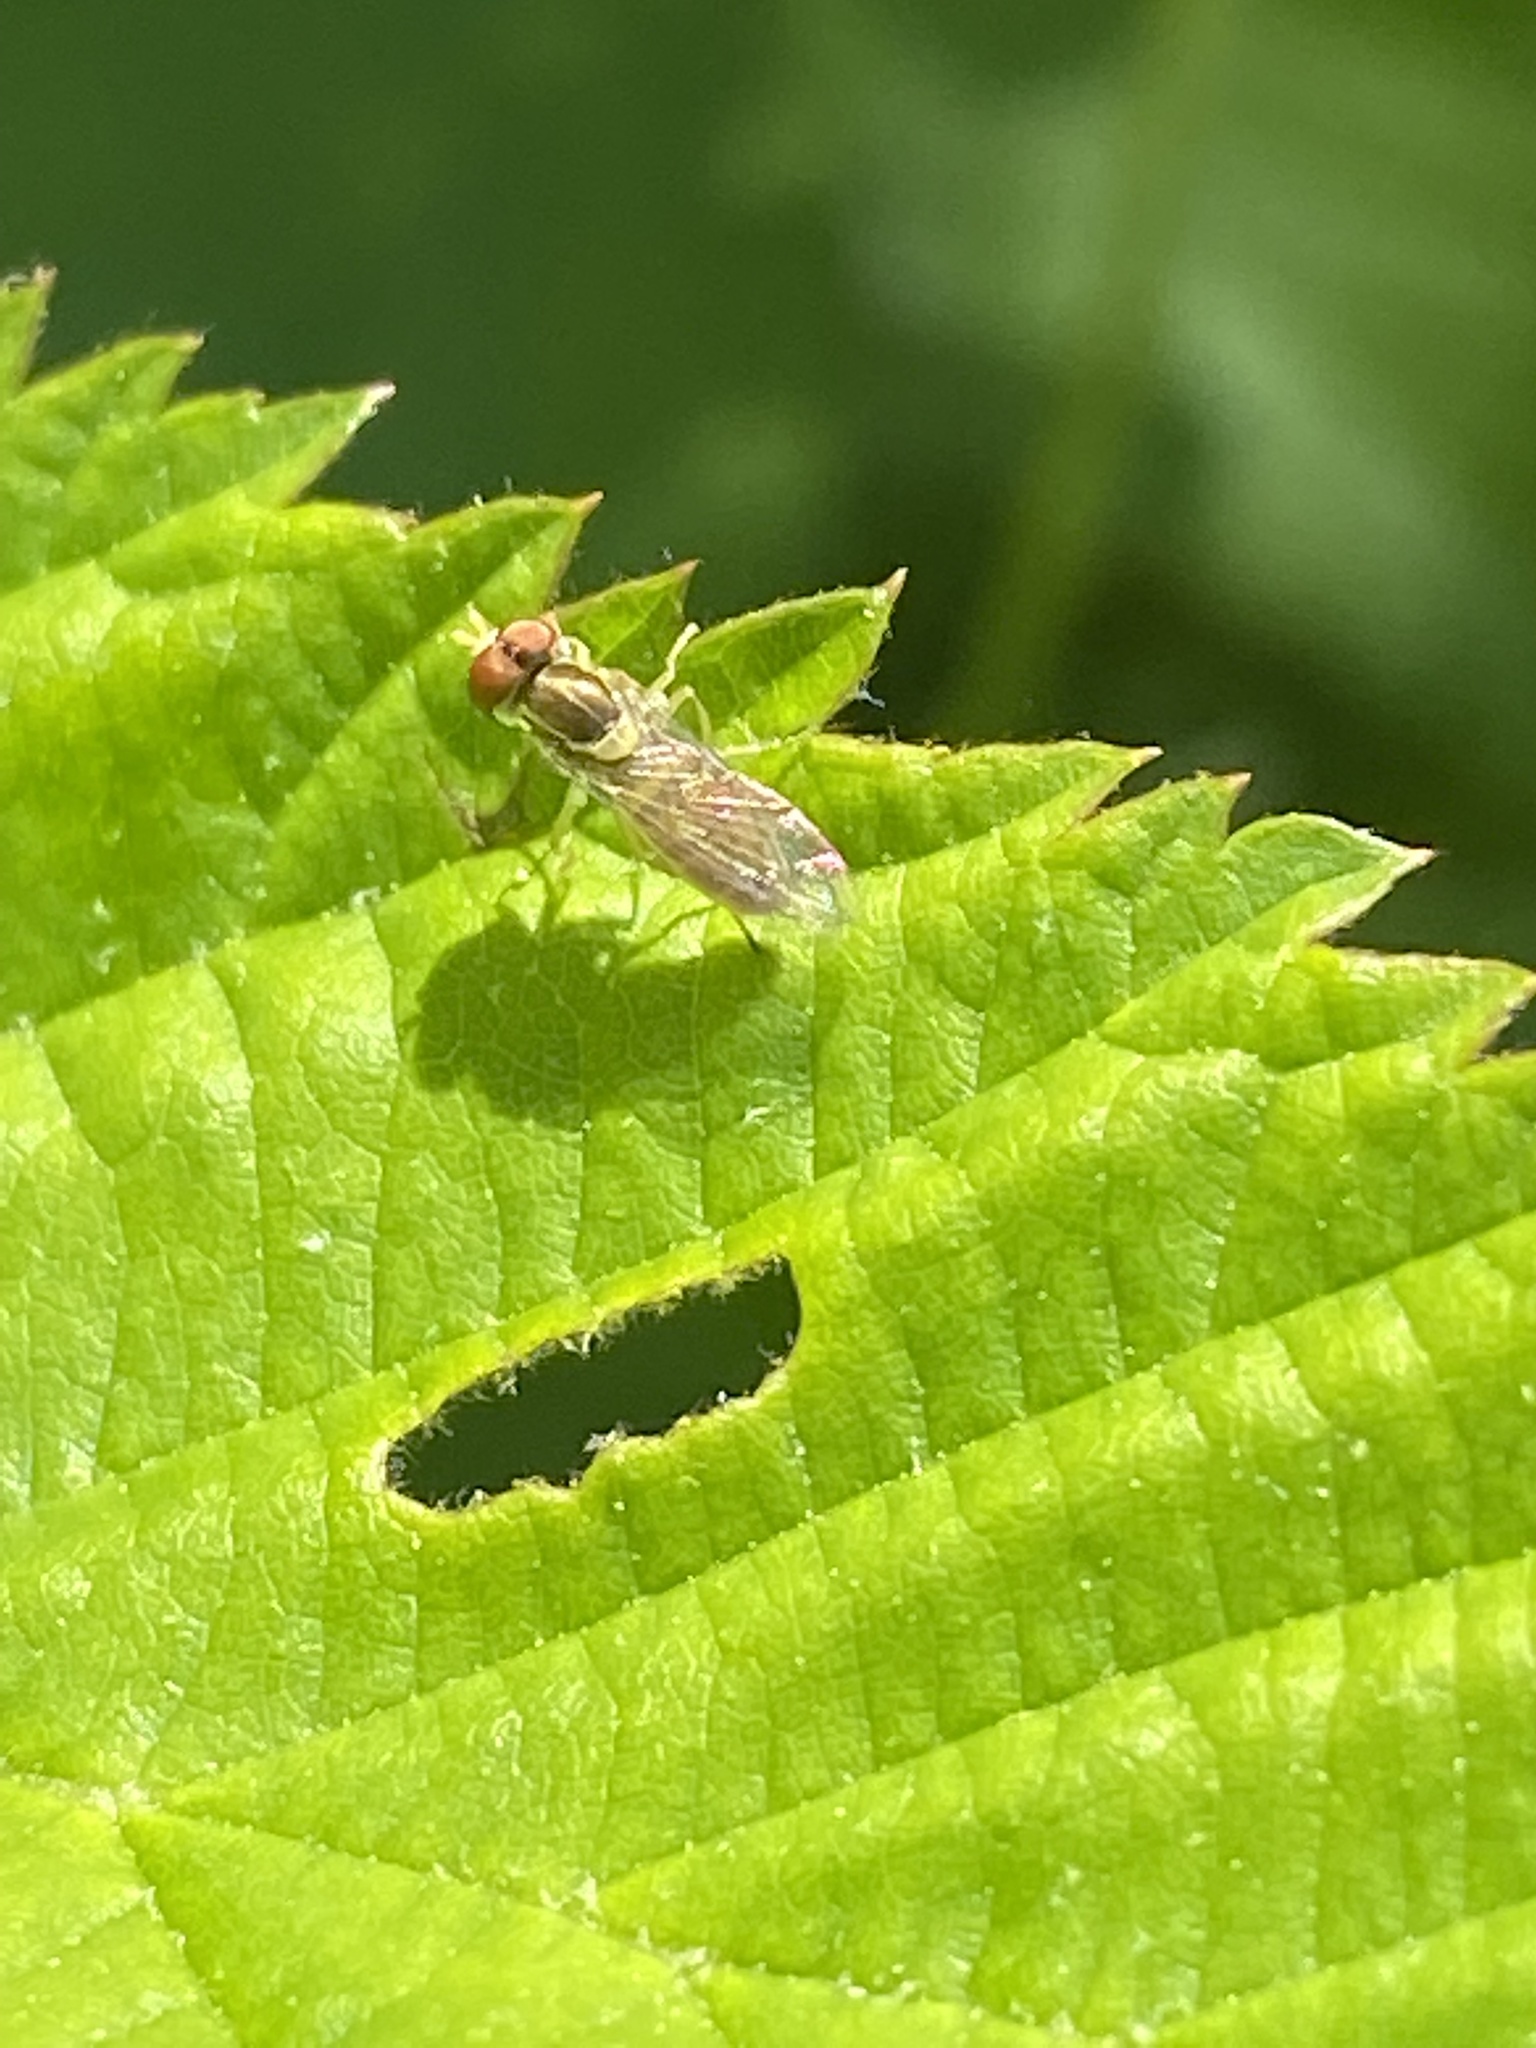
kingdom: Animalia
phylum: Arthropoda
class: Insecta
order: Diptera
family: Syrphidae
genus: Toxomerus
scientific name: Toxomerus marginatus
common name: Syrphid fly
